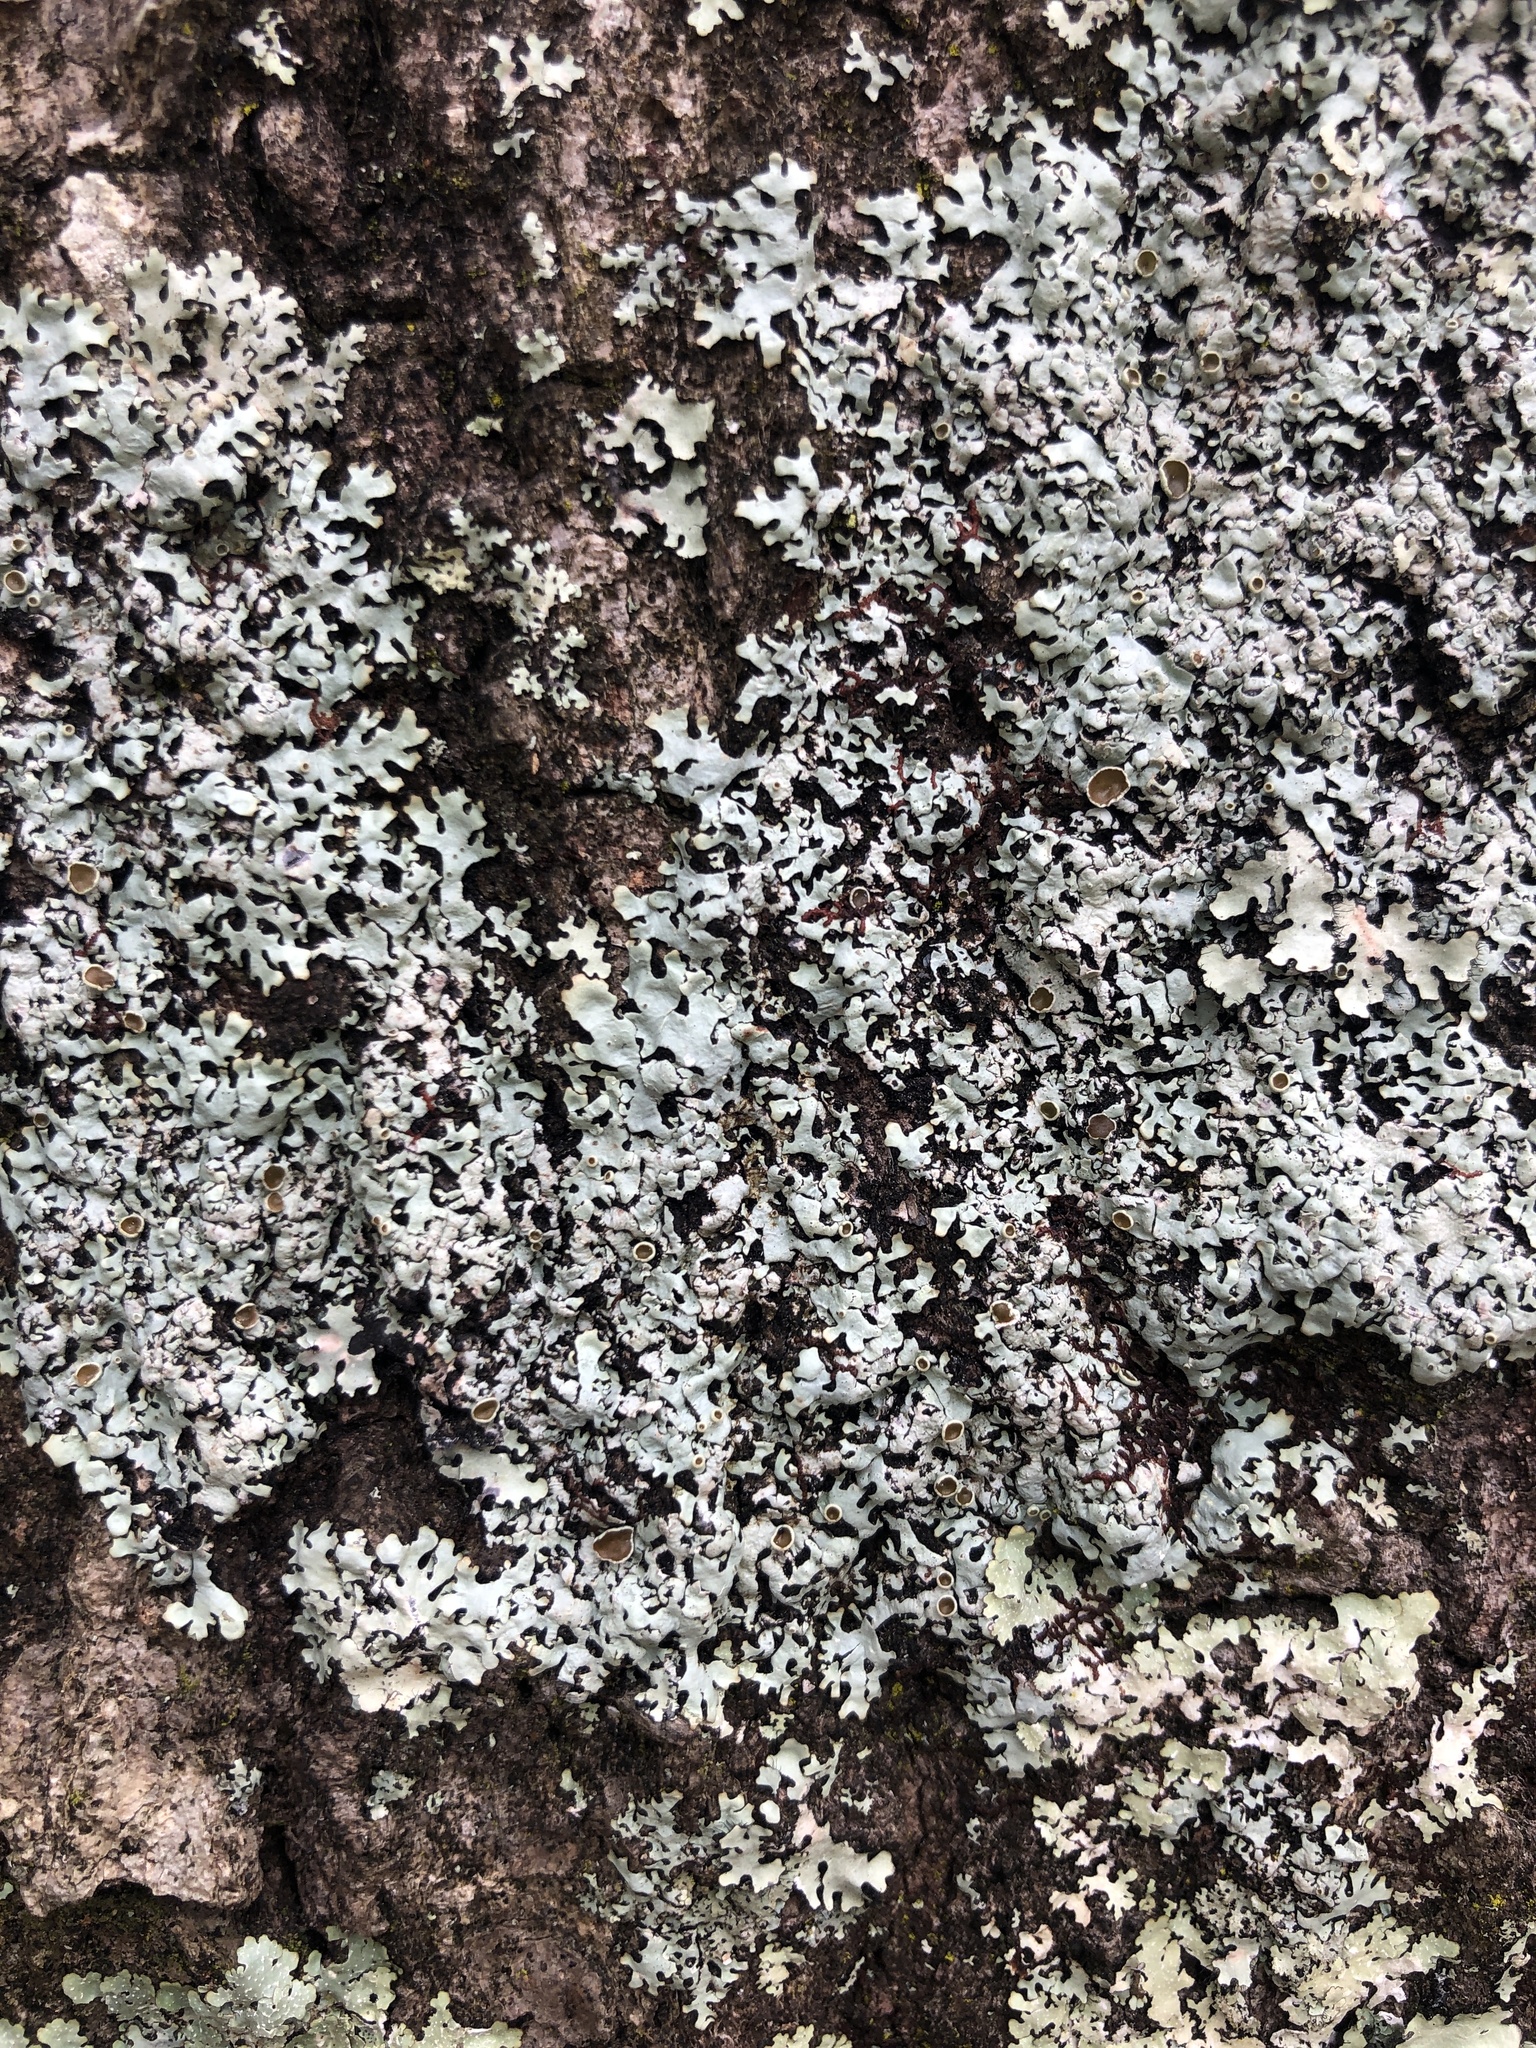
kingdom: Fungi
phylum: Ascomycota
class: Lecanoromycetes
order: Lecanorales
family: Parmeliaceae
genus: Hypotrachyna
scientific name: Hypotrachyna livida
